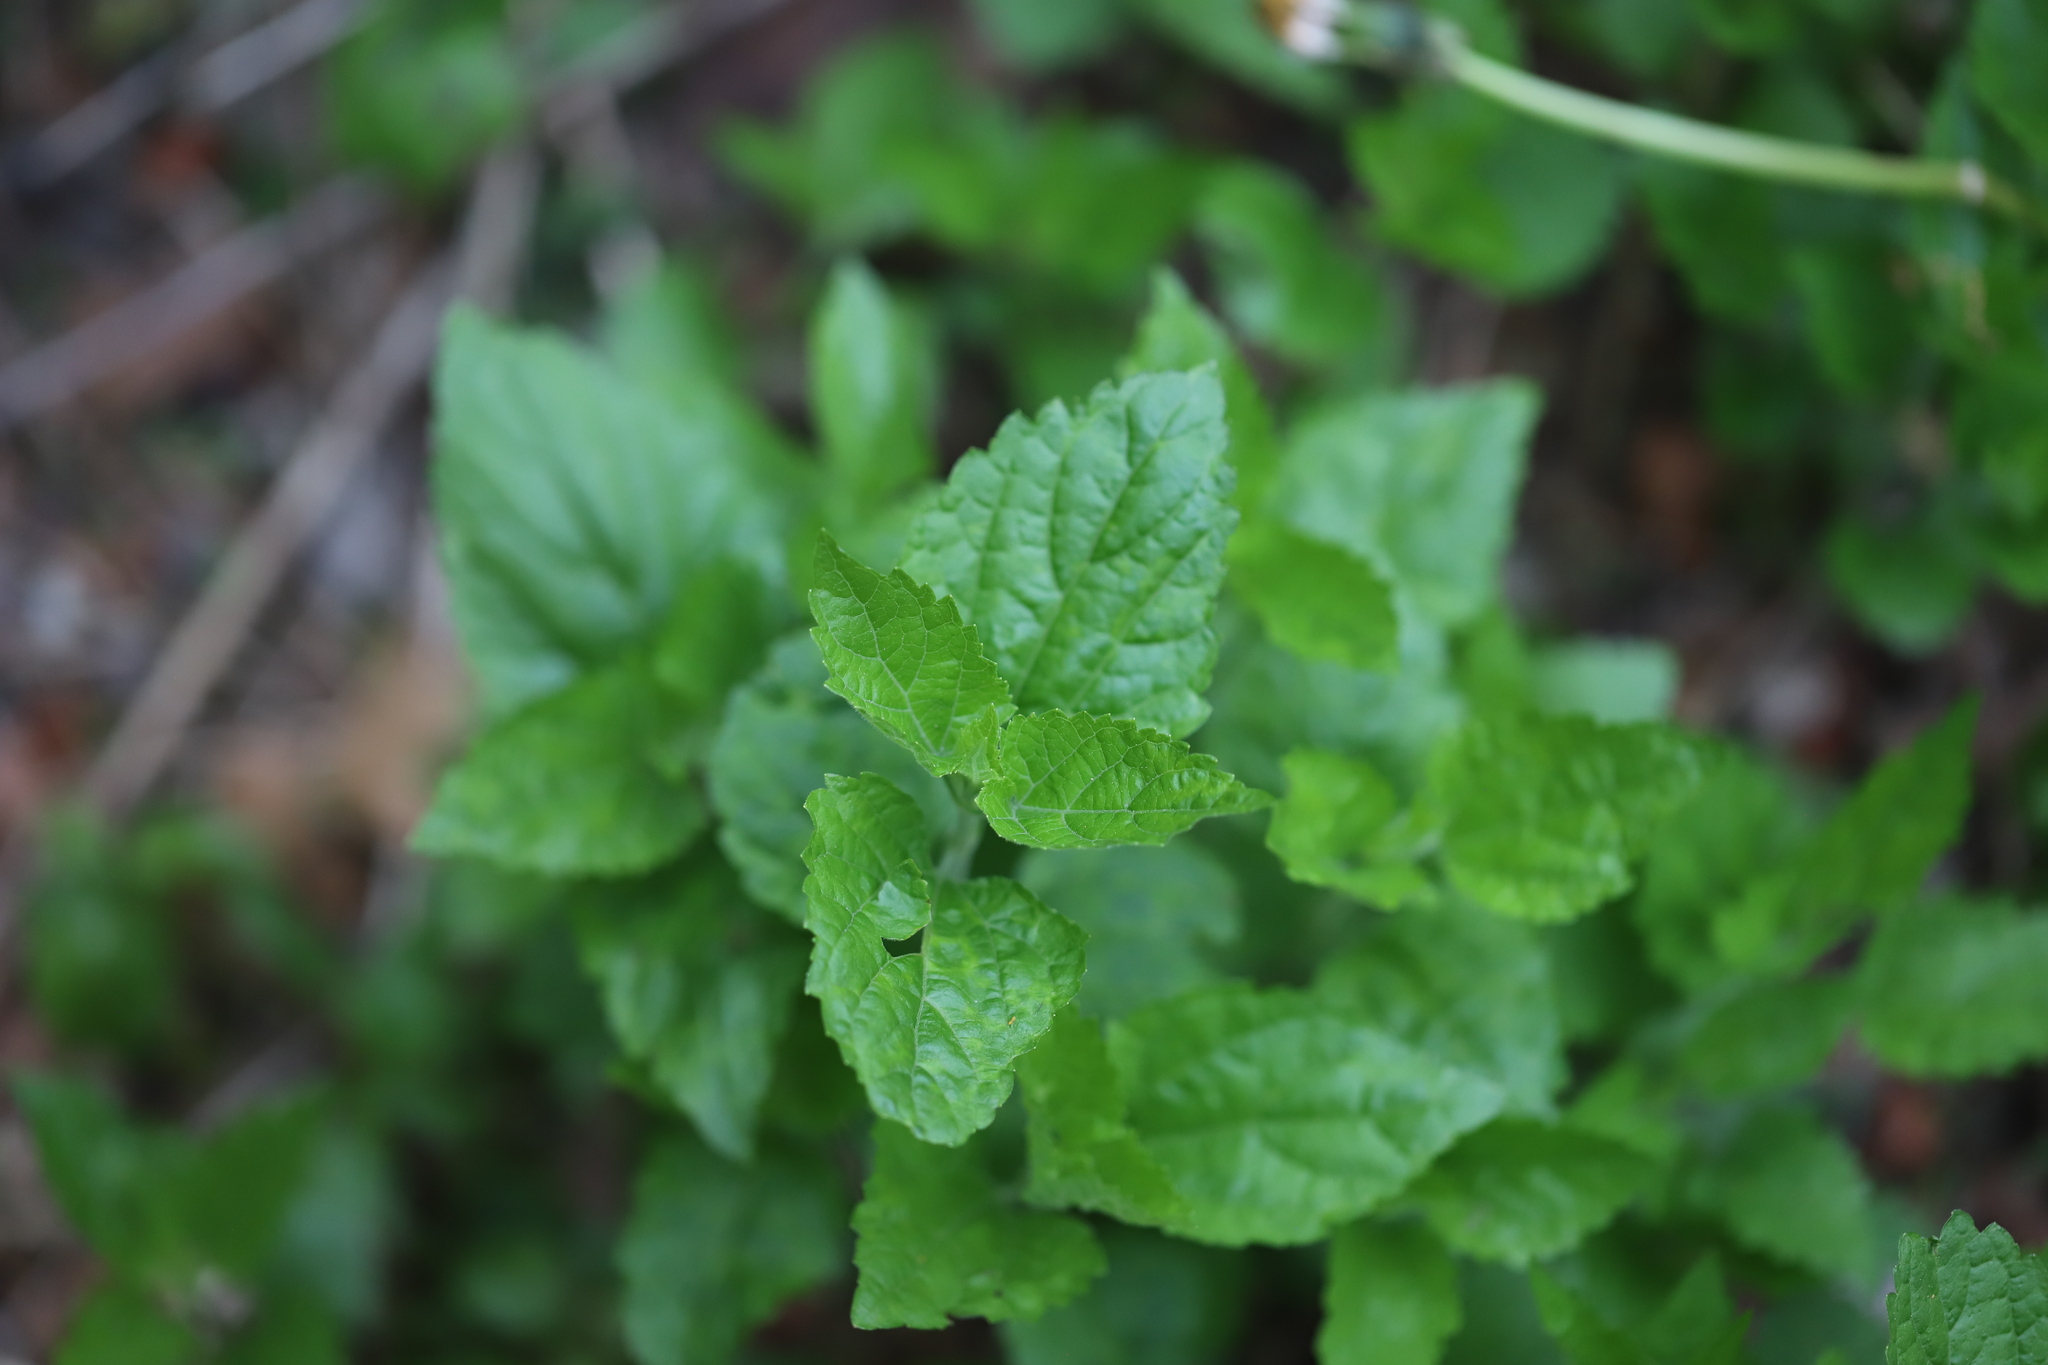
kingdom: Plantae
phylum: Tracheophyta
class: Magnoliopsida
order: Lamiales
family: Lamiaceae
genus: Melissa
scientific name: Melissa officinalis
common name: Balm
